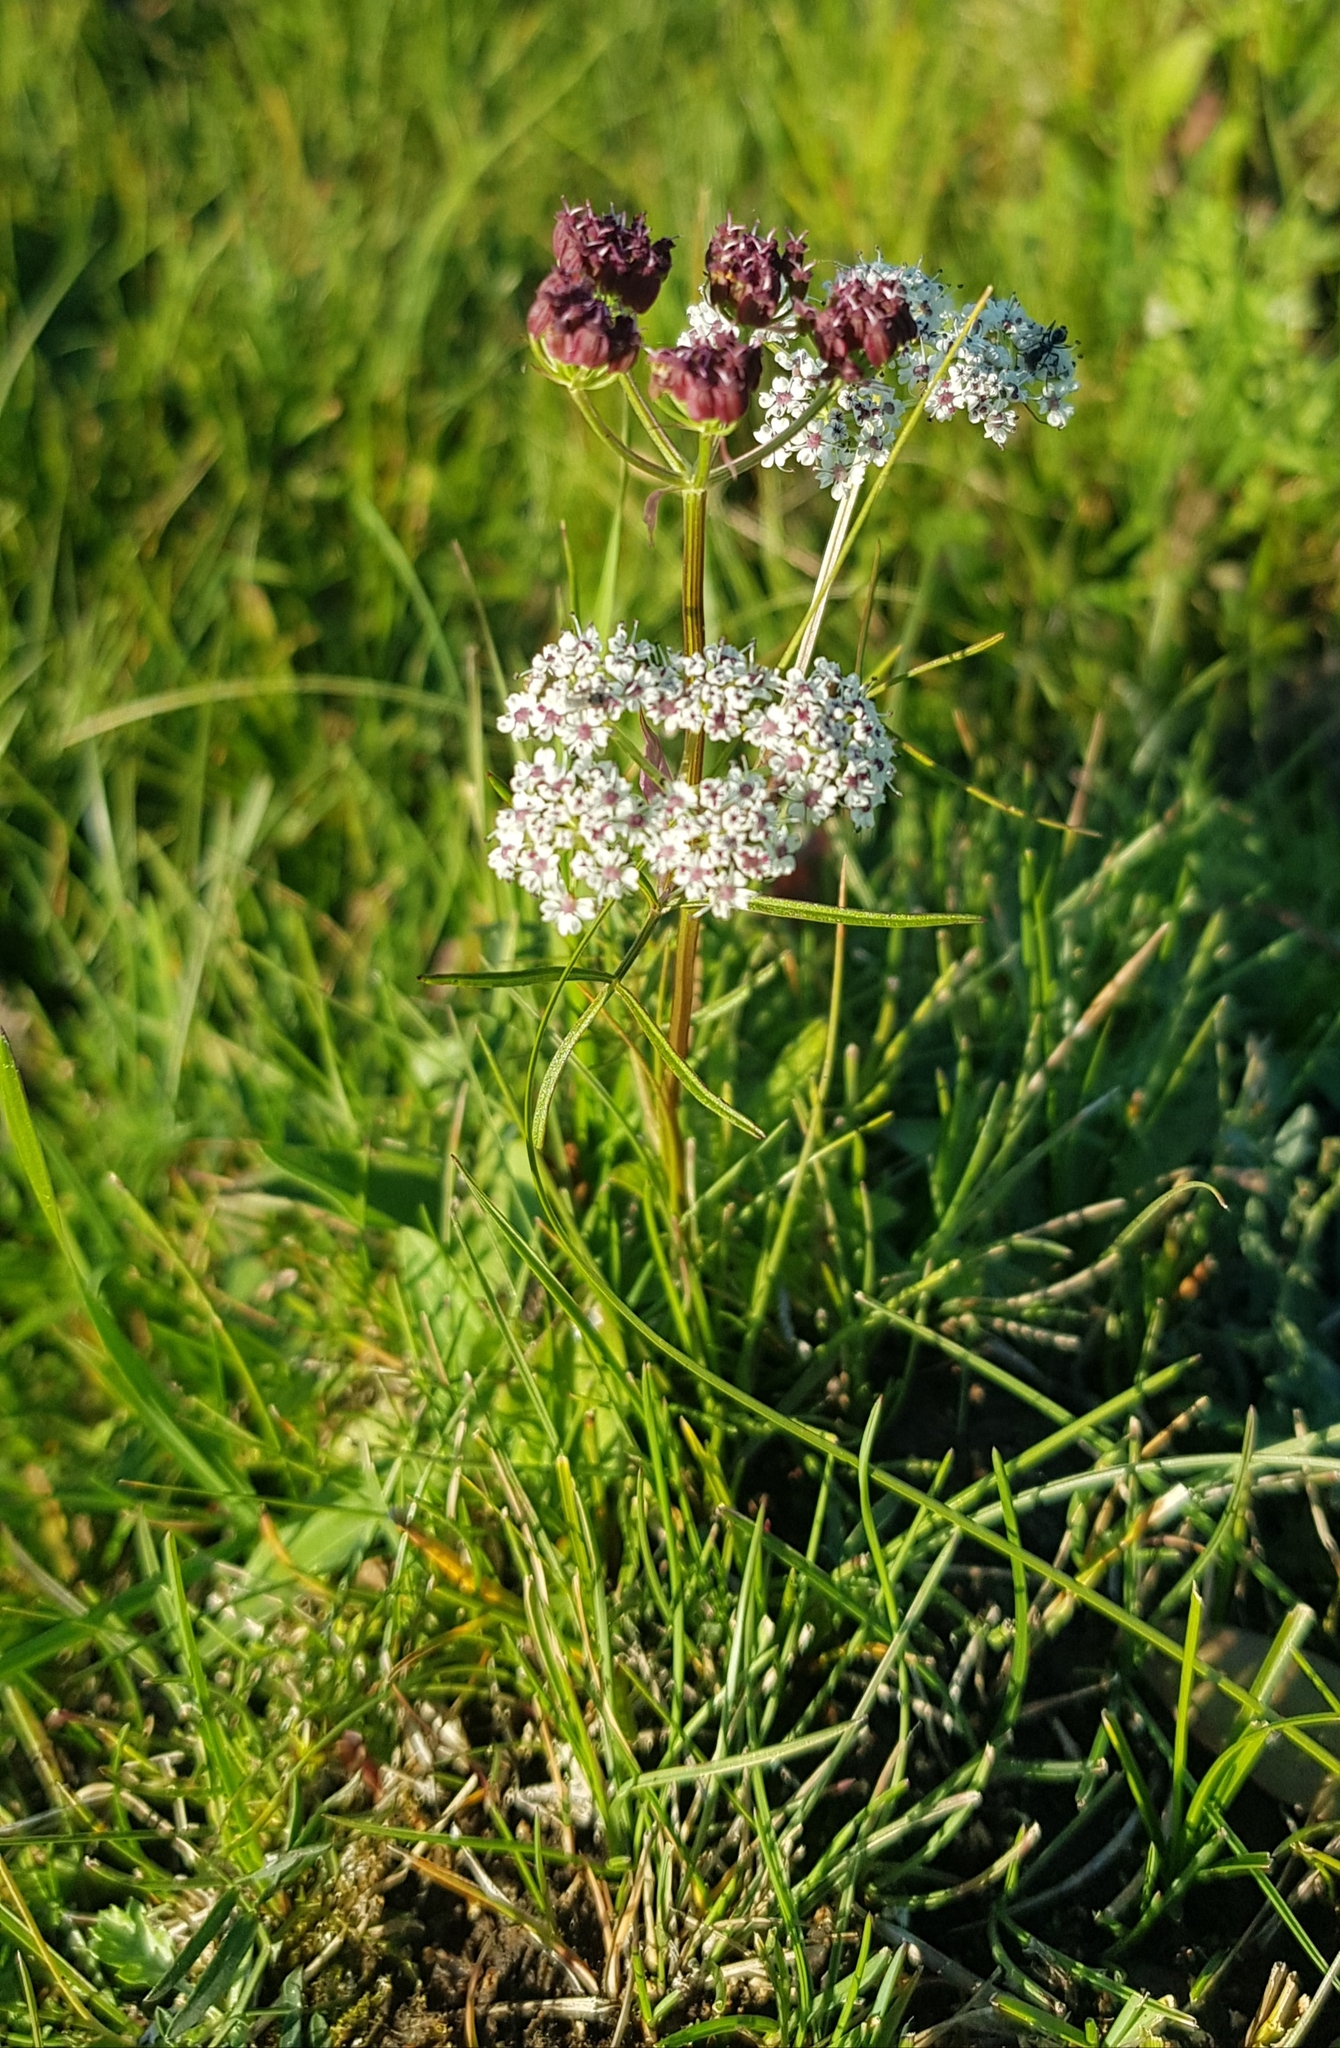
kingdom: Plantae
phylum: Tracheophyta
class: Magnoliopsida
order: Apiales
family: Apiaceae
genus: Ostericum
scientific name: Ostericum tenuifolium
